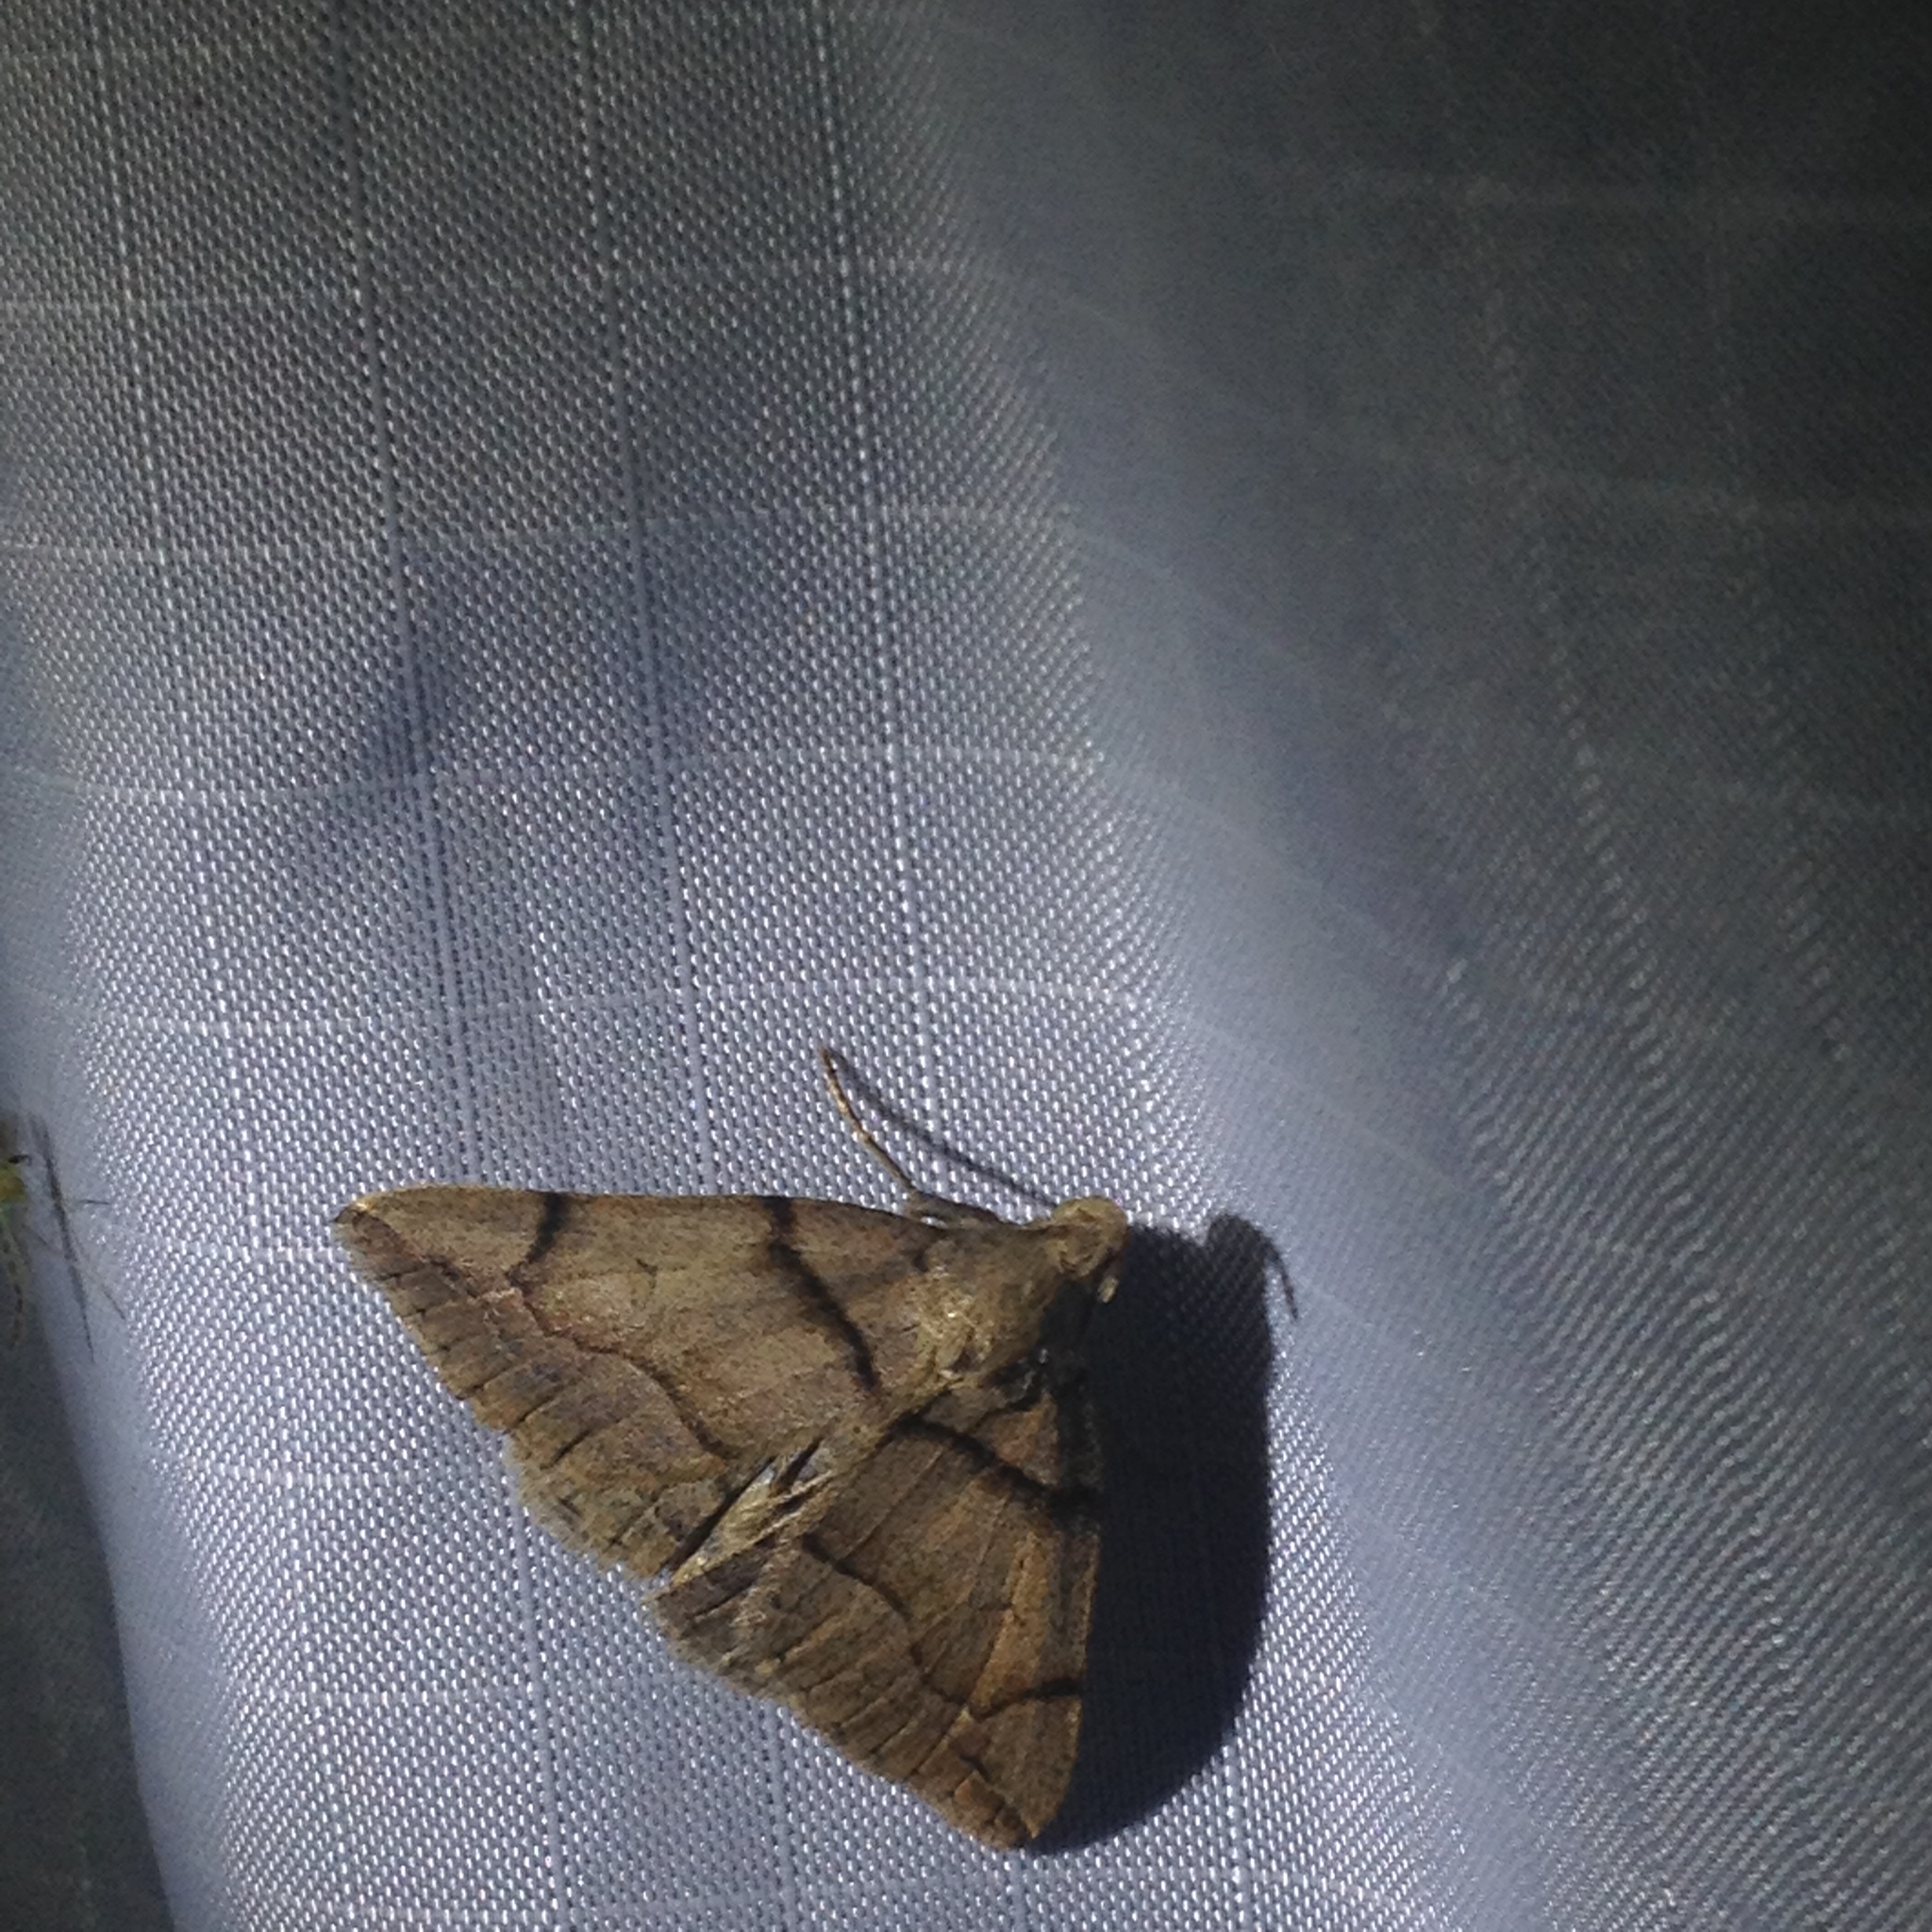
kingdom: Animalia
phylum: Arthropoda
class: Insecta
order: Lepidoptera
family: Erebidae
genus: Zanclognatha
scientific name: Zanclognatha laevigata
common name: Variable fan-foot
